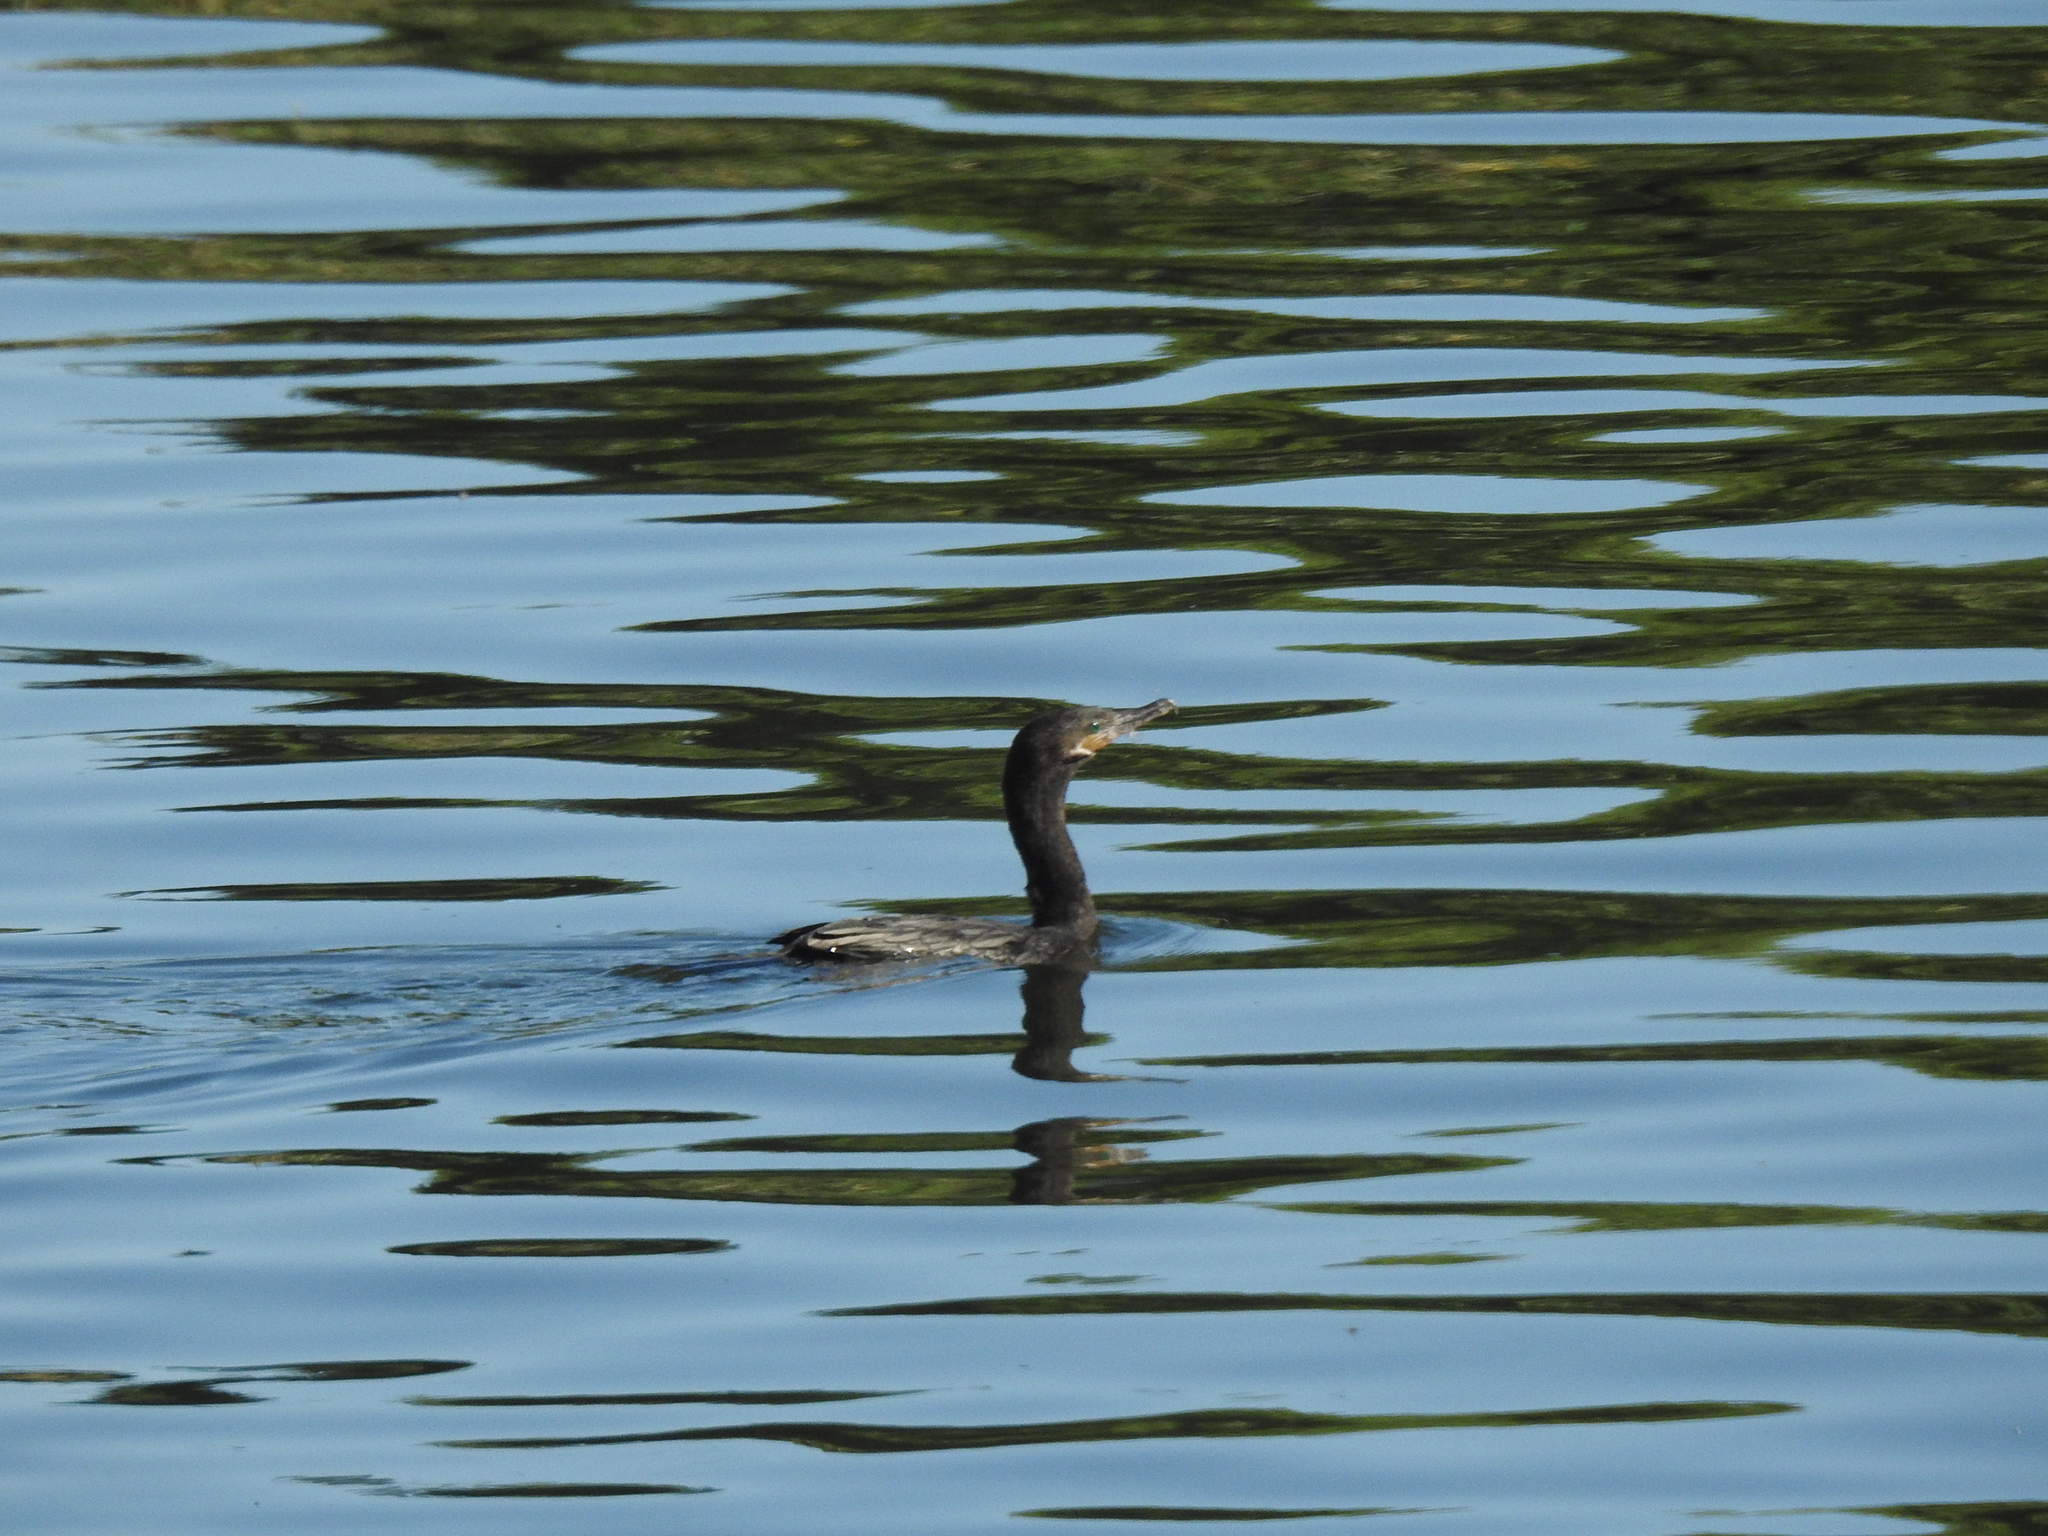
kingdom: Animalia
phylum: Chordata
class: Aves
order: Suliformes
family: Phalacrocoracidae
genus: Phalacrocorax
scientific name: Phalacrocorax brasilianus
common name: Neotropic cormorant
